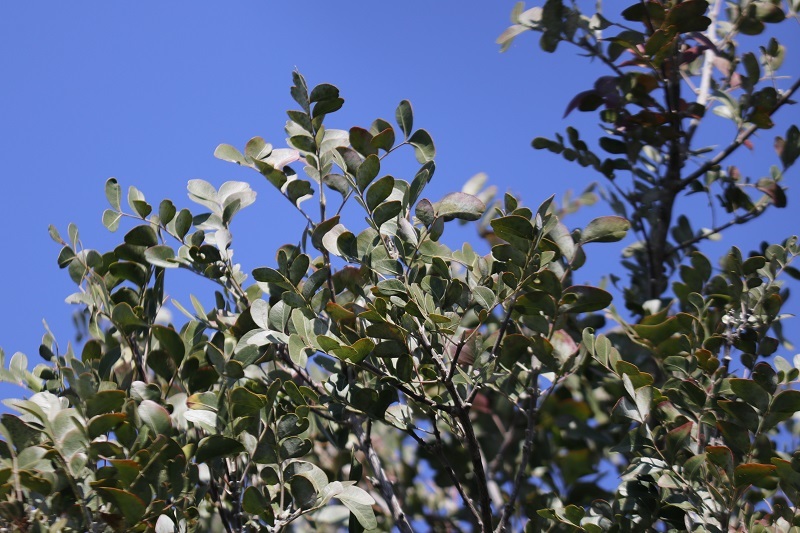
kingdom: Plantae
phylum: Tracheophyta
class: Magnoliopsida
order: Sapindales
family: Rutaceae
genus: Ptaeroxylon
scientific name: Ptaeroxylon obliquum
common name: Sneezewood
